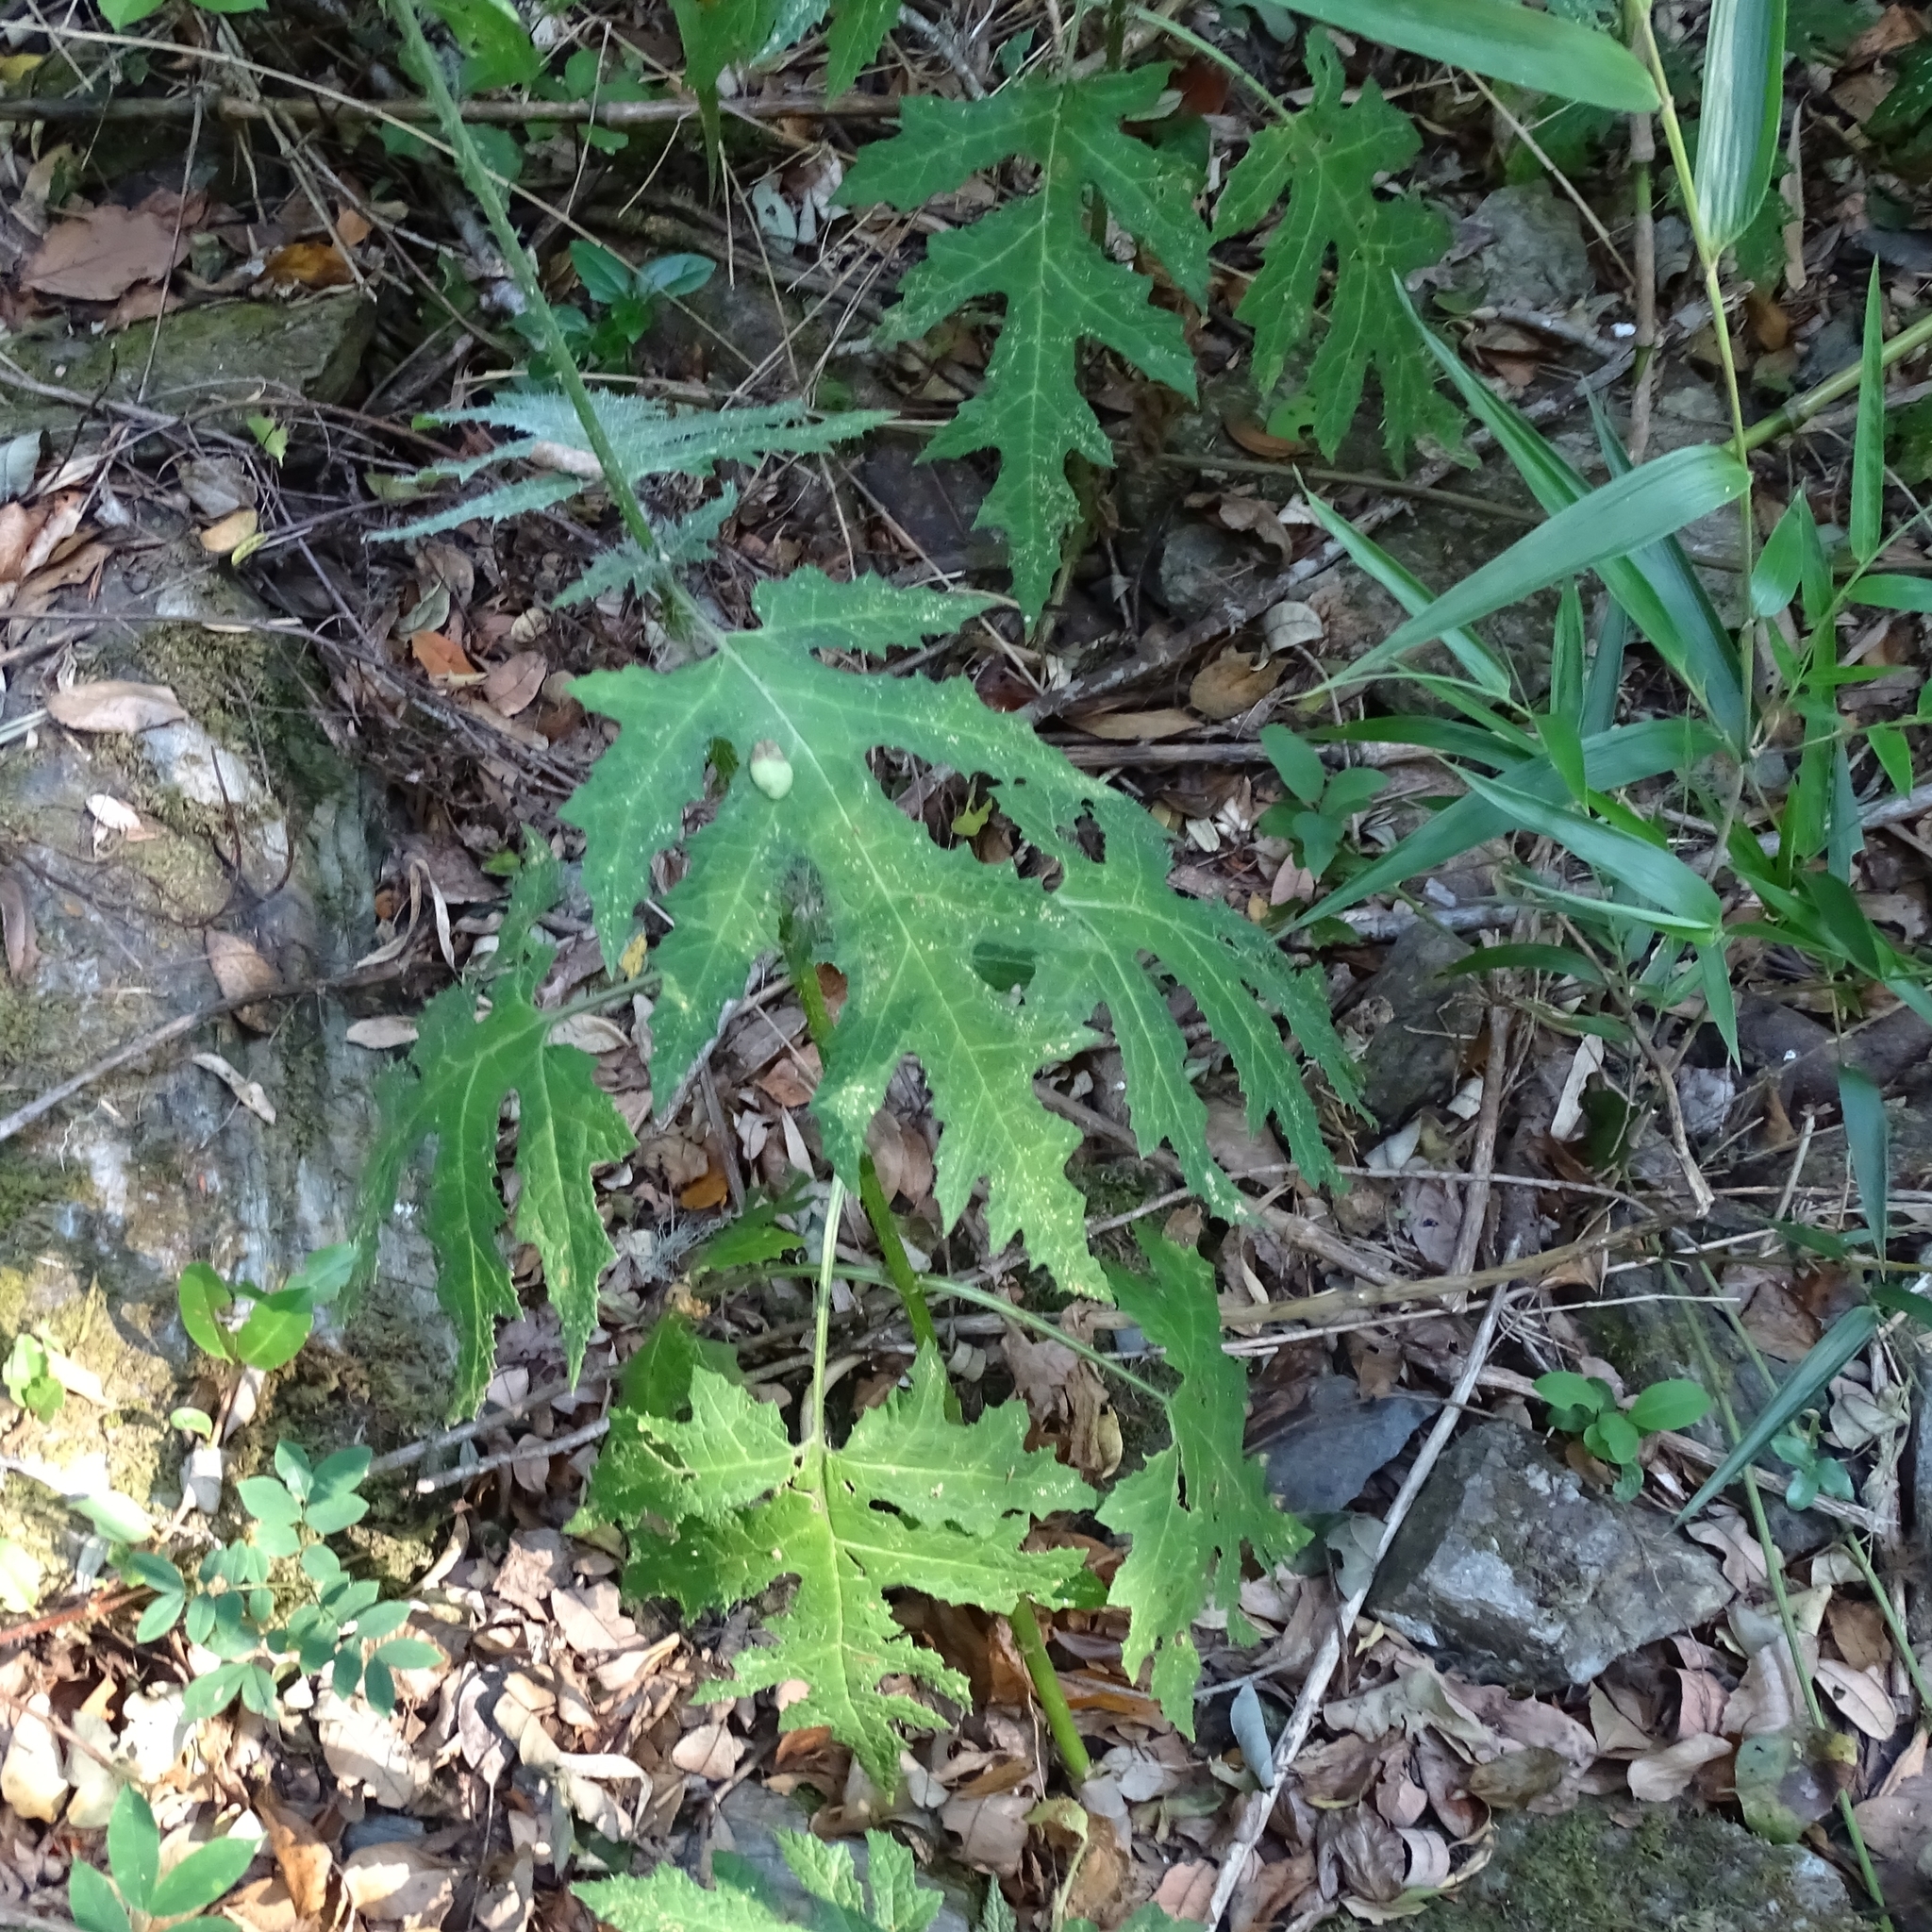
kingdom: Plantae
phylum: Tracheophyta
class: Magnoliopsida
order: Cornales
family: Loasaceae
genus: Loasa
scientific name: Loasa acanthifolia
